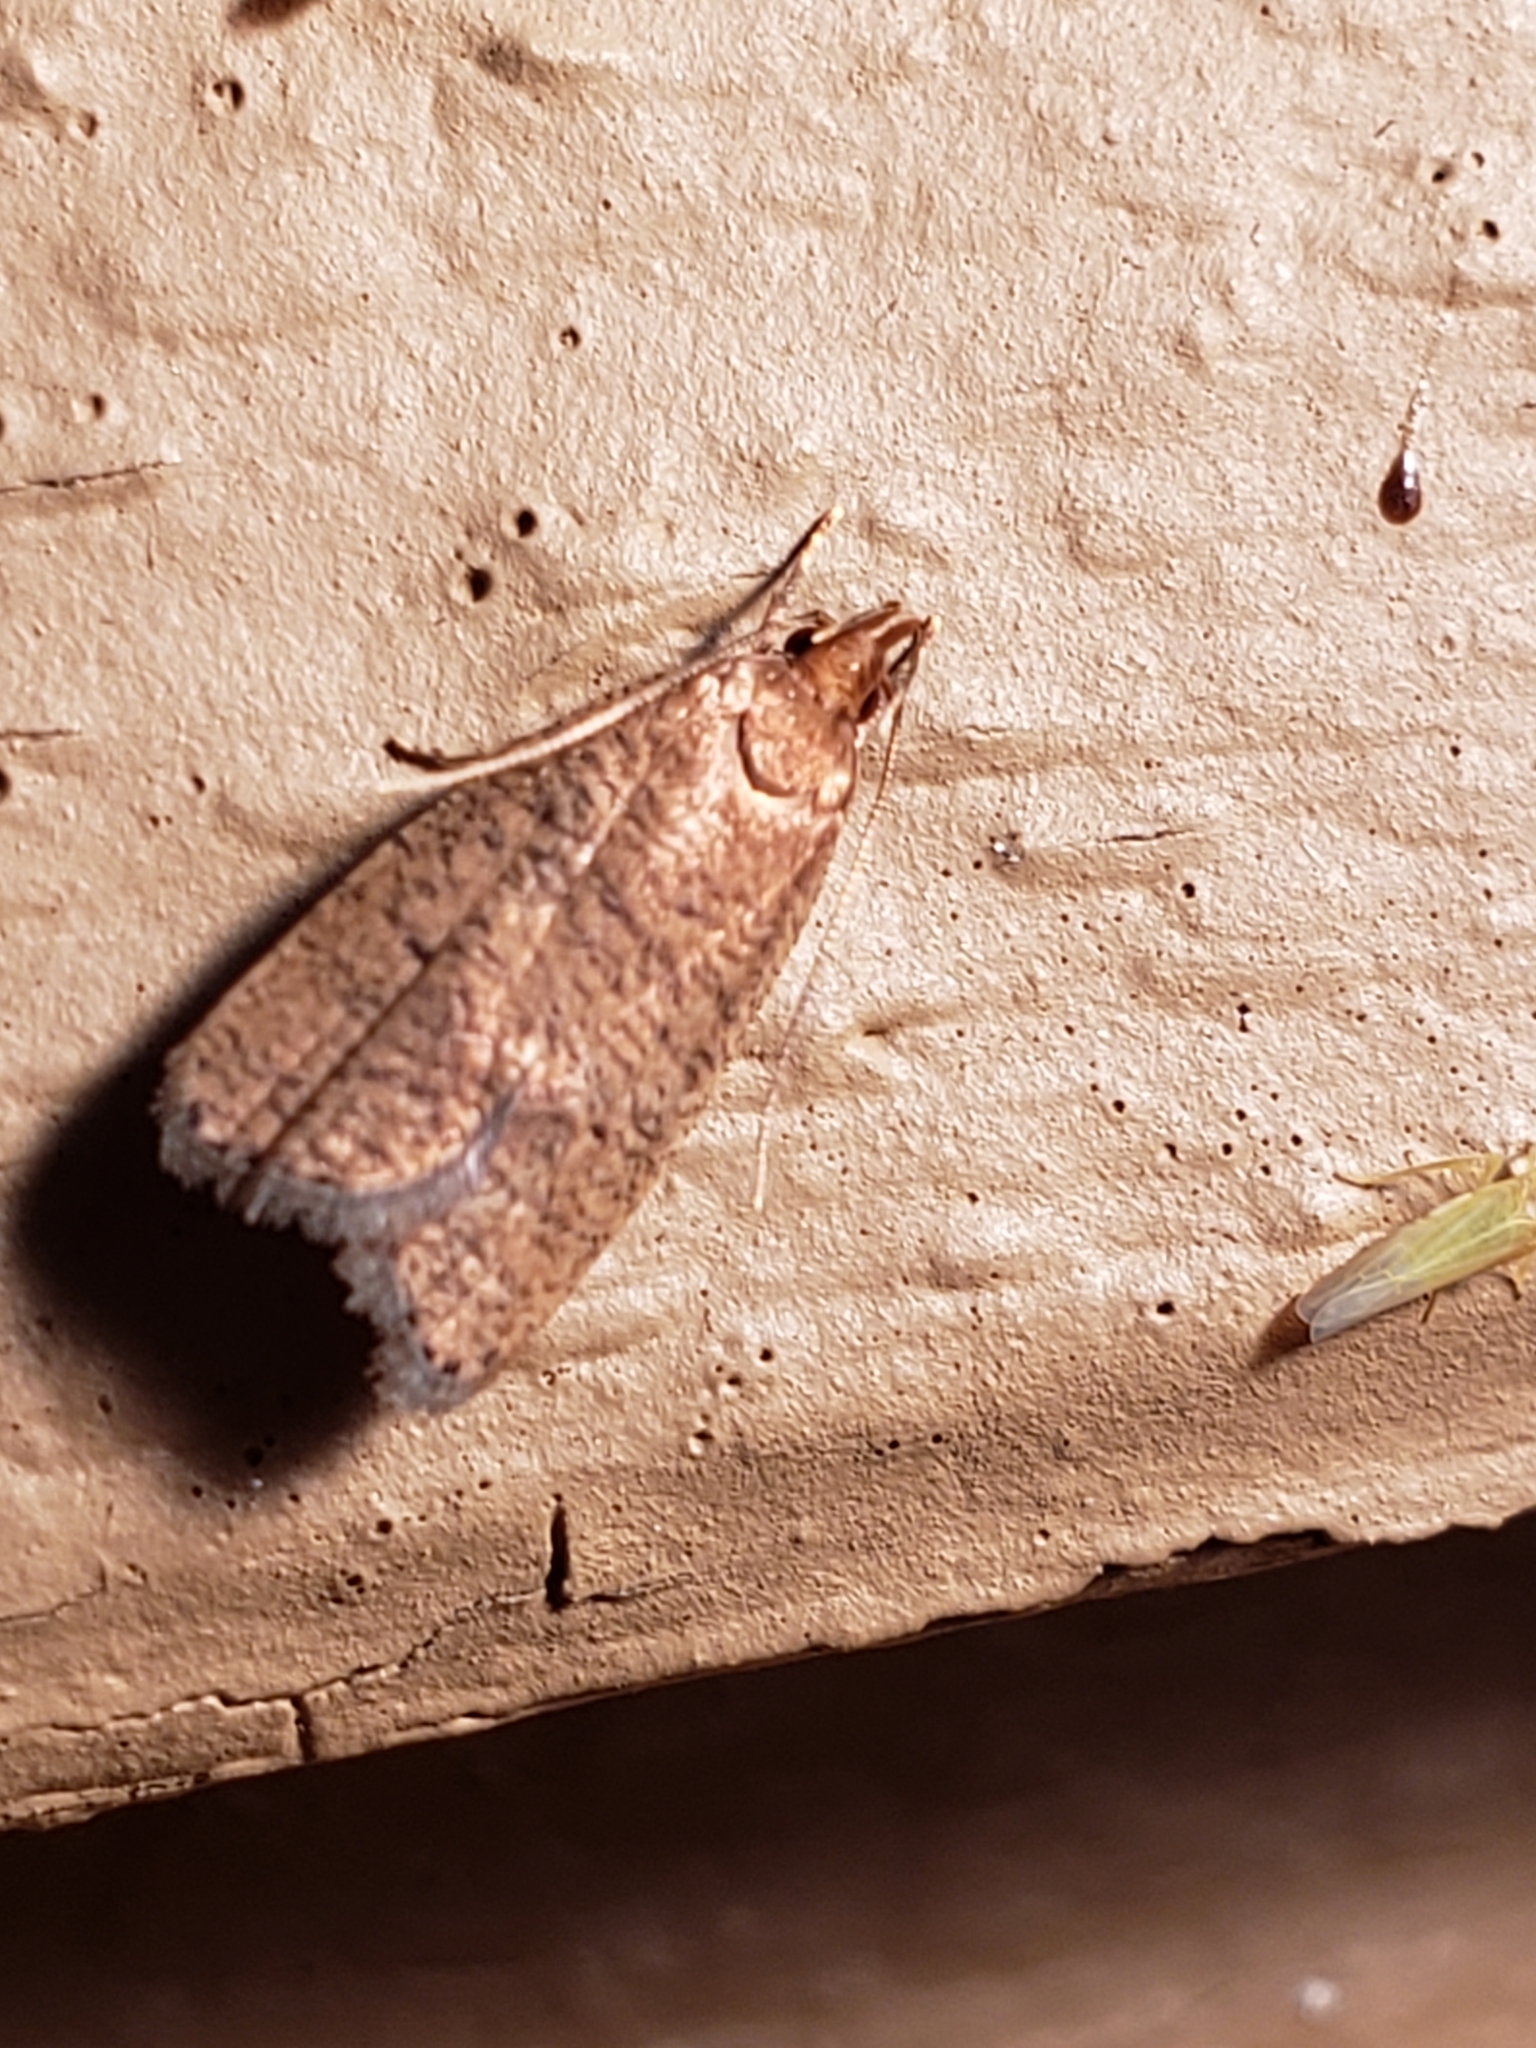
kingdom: Animalia
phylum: Arthropoda
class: Insecta
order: Lepidoptera
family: Depressariidae
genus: Psilocorsis
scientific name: Psilocorsis reflexella
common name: Dotted leaftier moth
